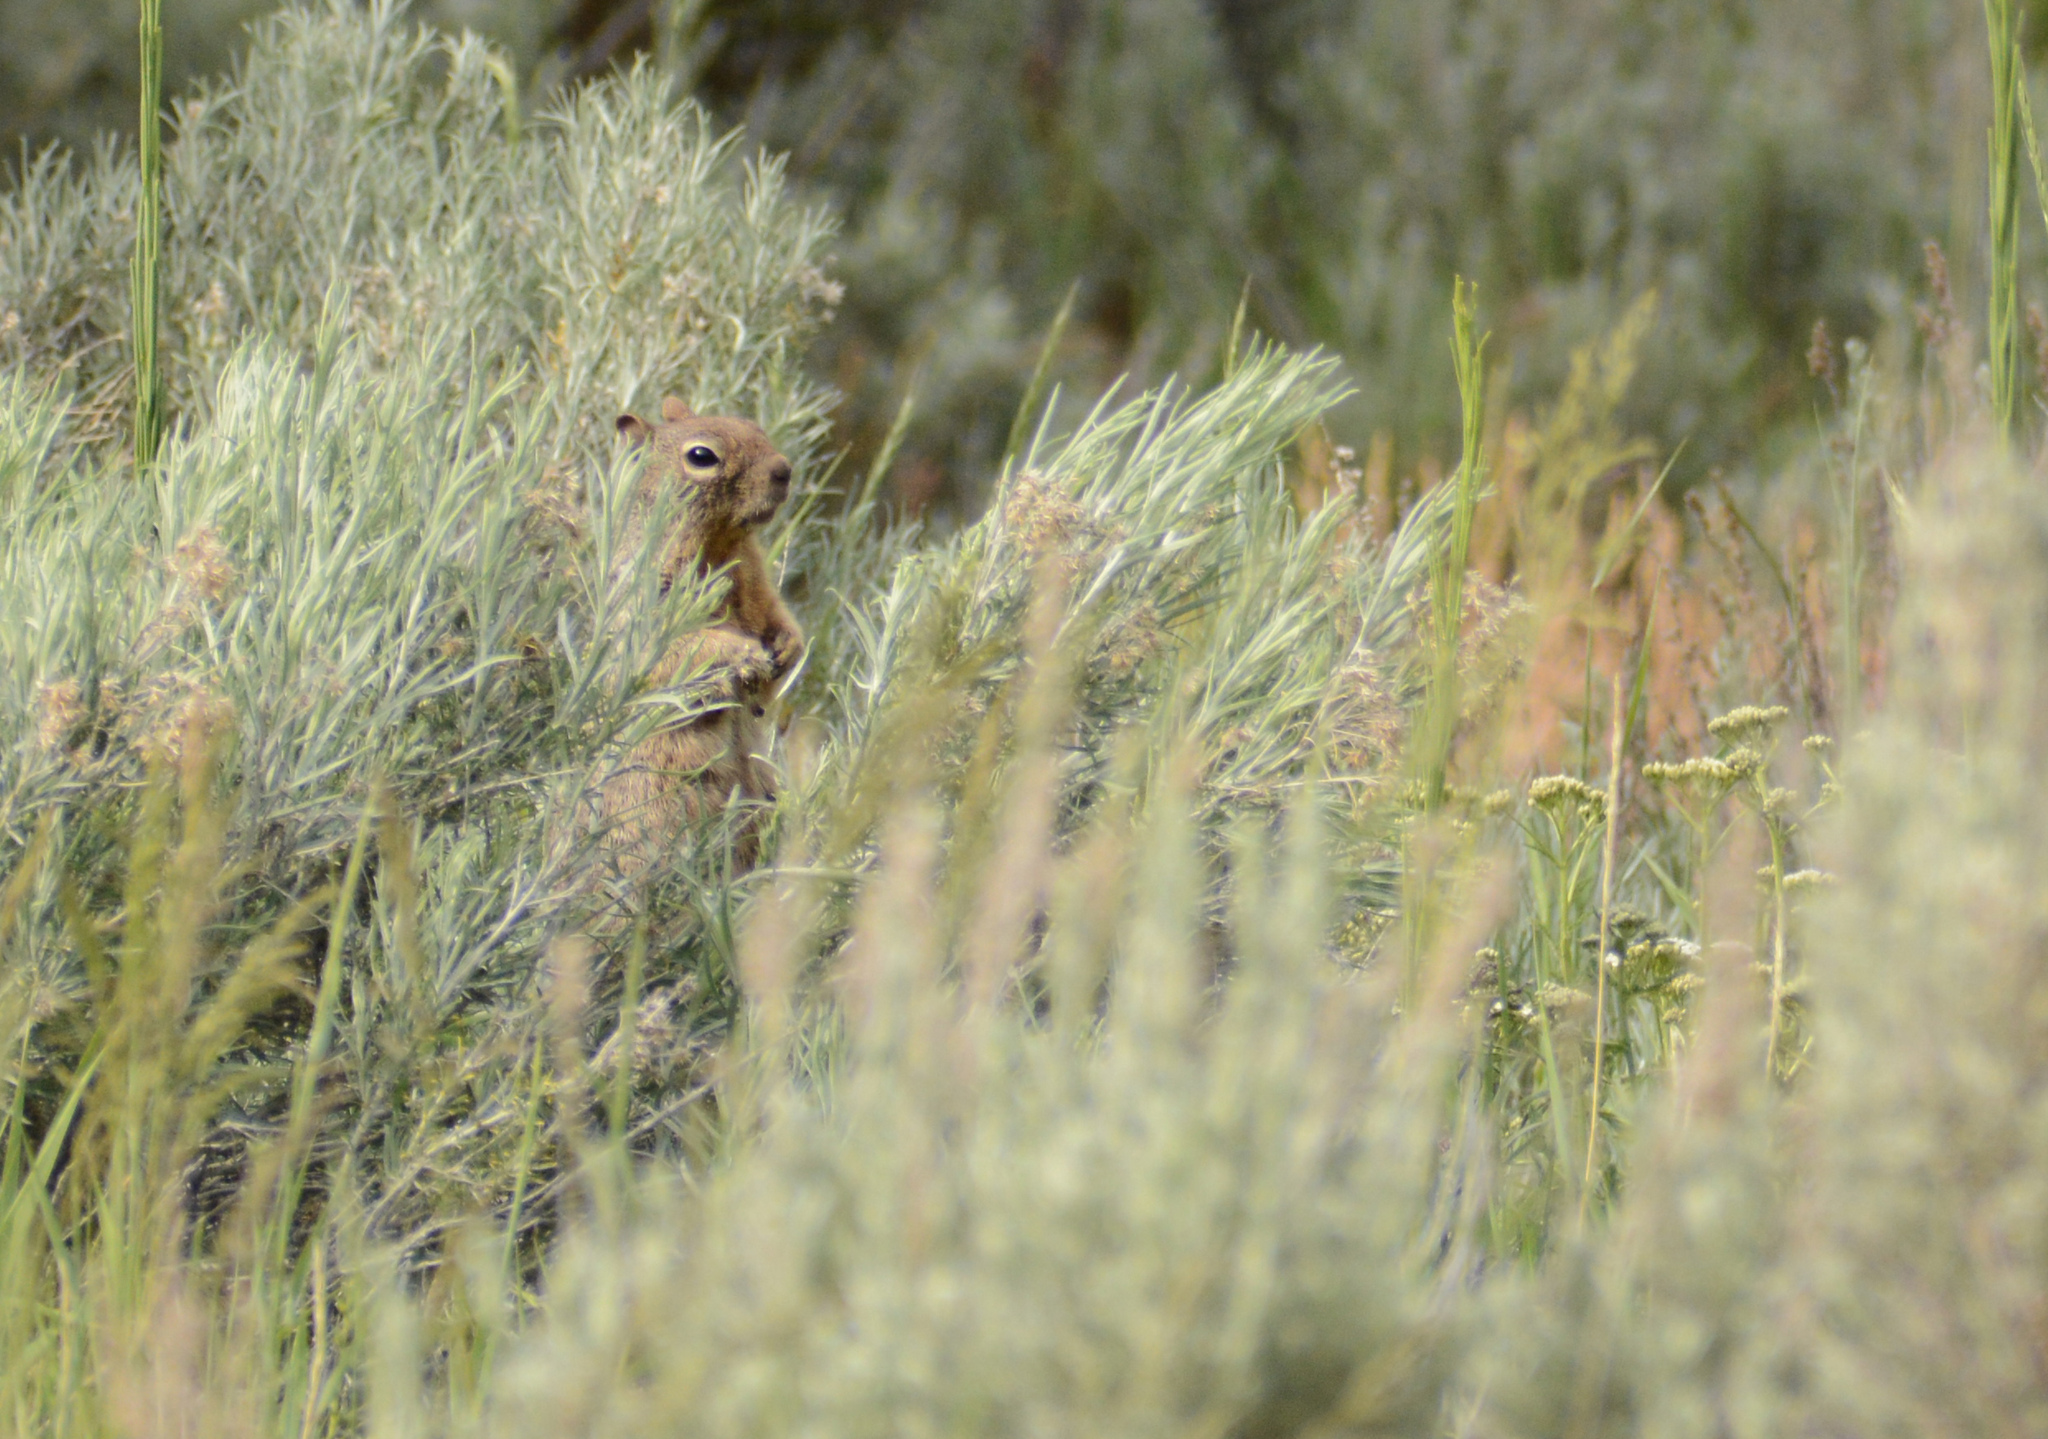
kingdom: Animalia
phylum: Chordata
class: Mammalia
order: Rodentia
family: Sciuridae
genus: Otospermophilus
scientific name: Otospermophilus variegatus
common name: Rock squirrel
